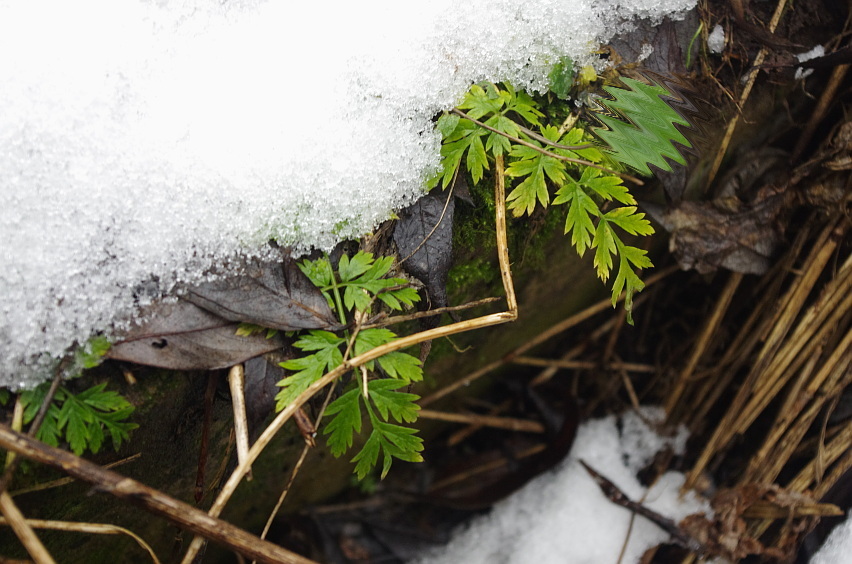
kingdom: Plantae
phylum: Tracheophyta
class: Magnoliopsida
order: Apiales
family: Apiaceae
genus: Anthriscus
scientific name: Anthriscus sylvestris
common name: Cow parsley
